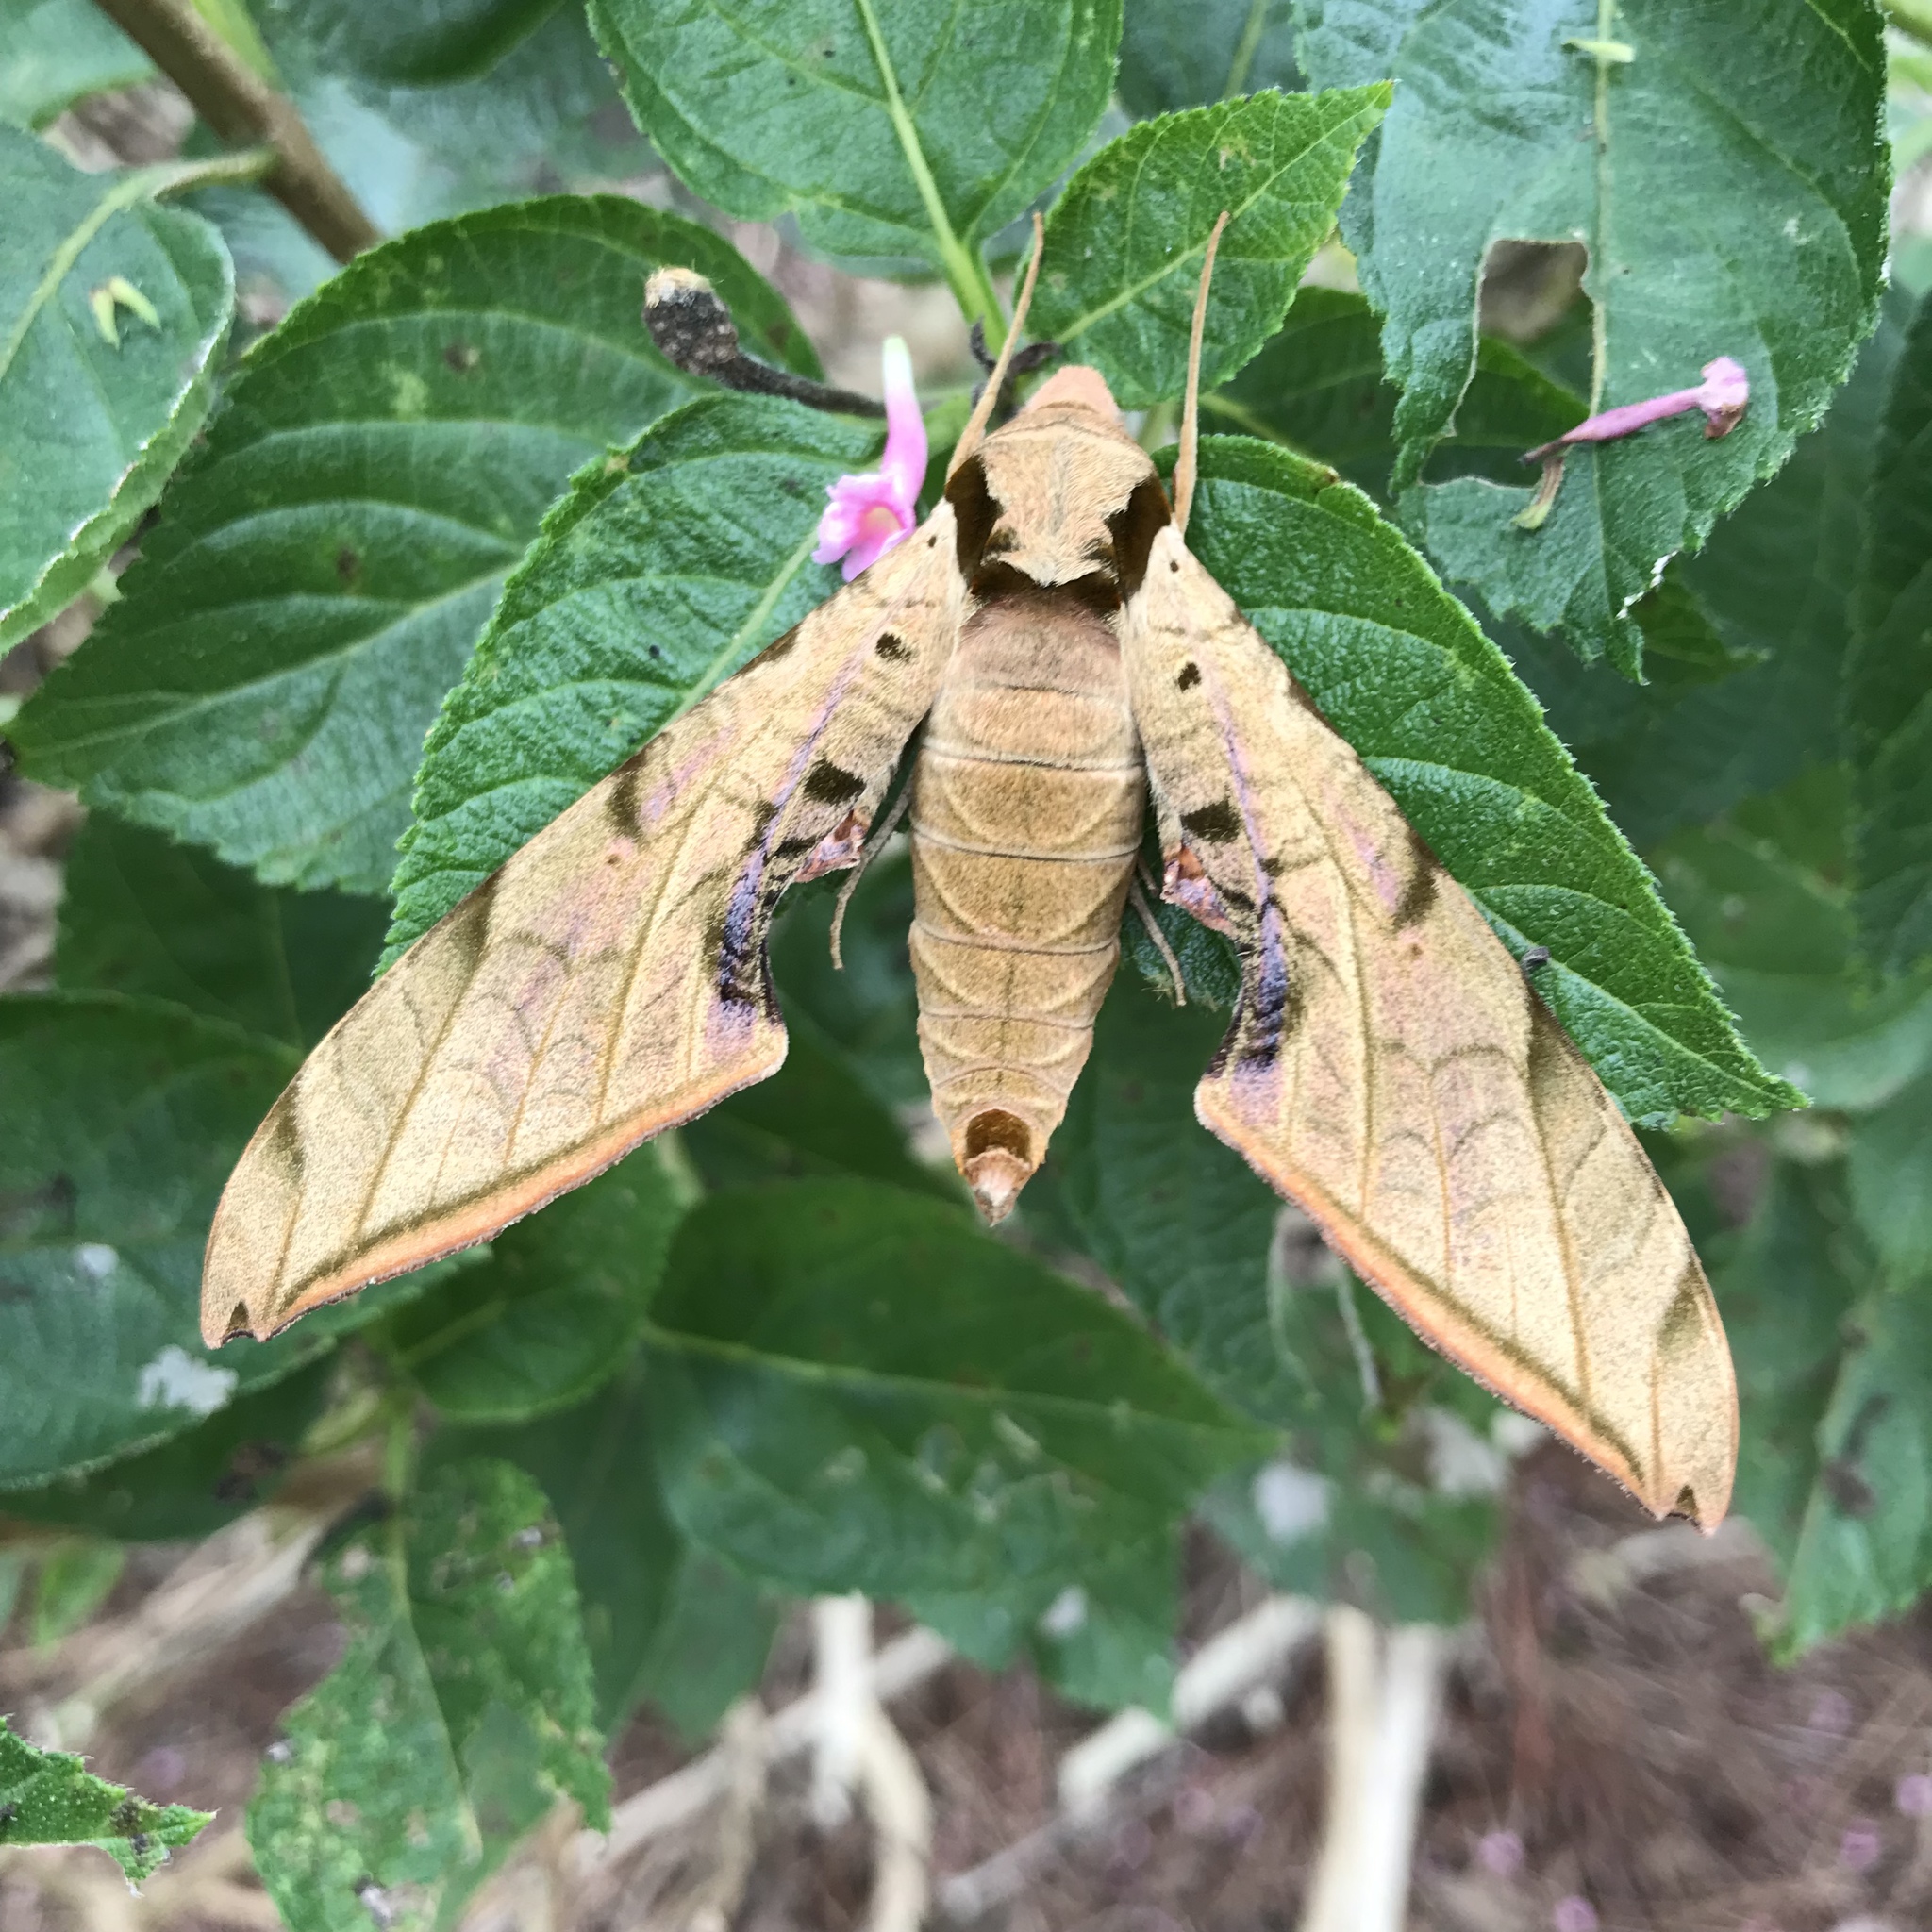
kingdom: Animalia
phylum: Arthropoda
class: Insecta
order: Lepidoptera
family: Sphingidae
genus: Protambulyx
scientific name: Protambulyx strigilis
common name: Streaked sphinx
